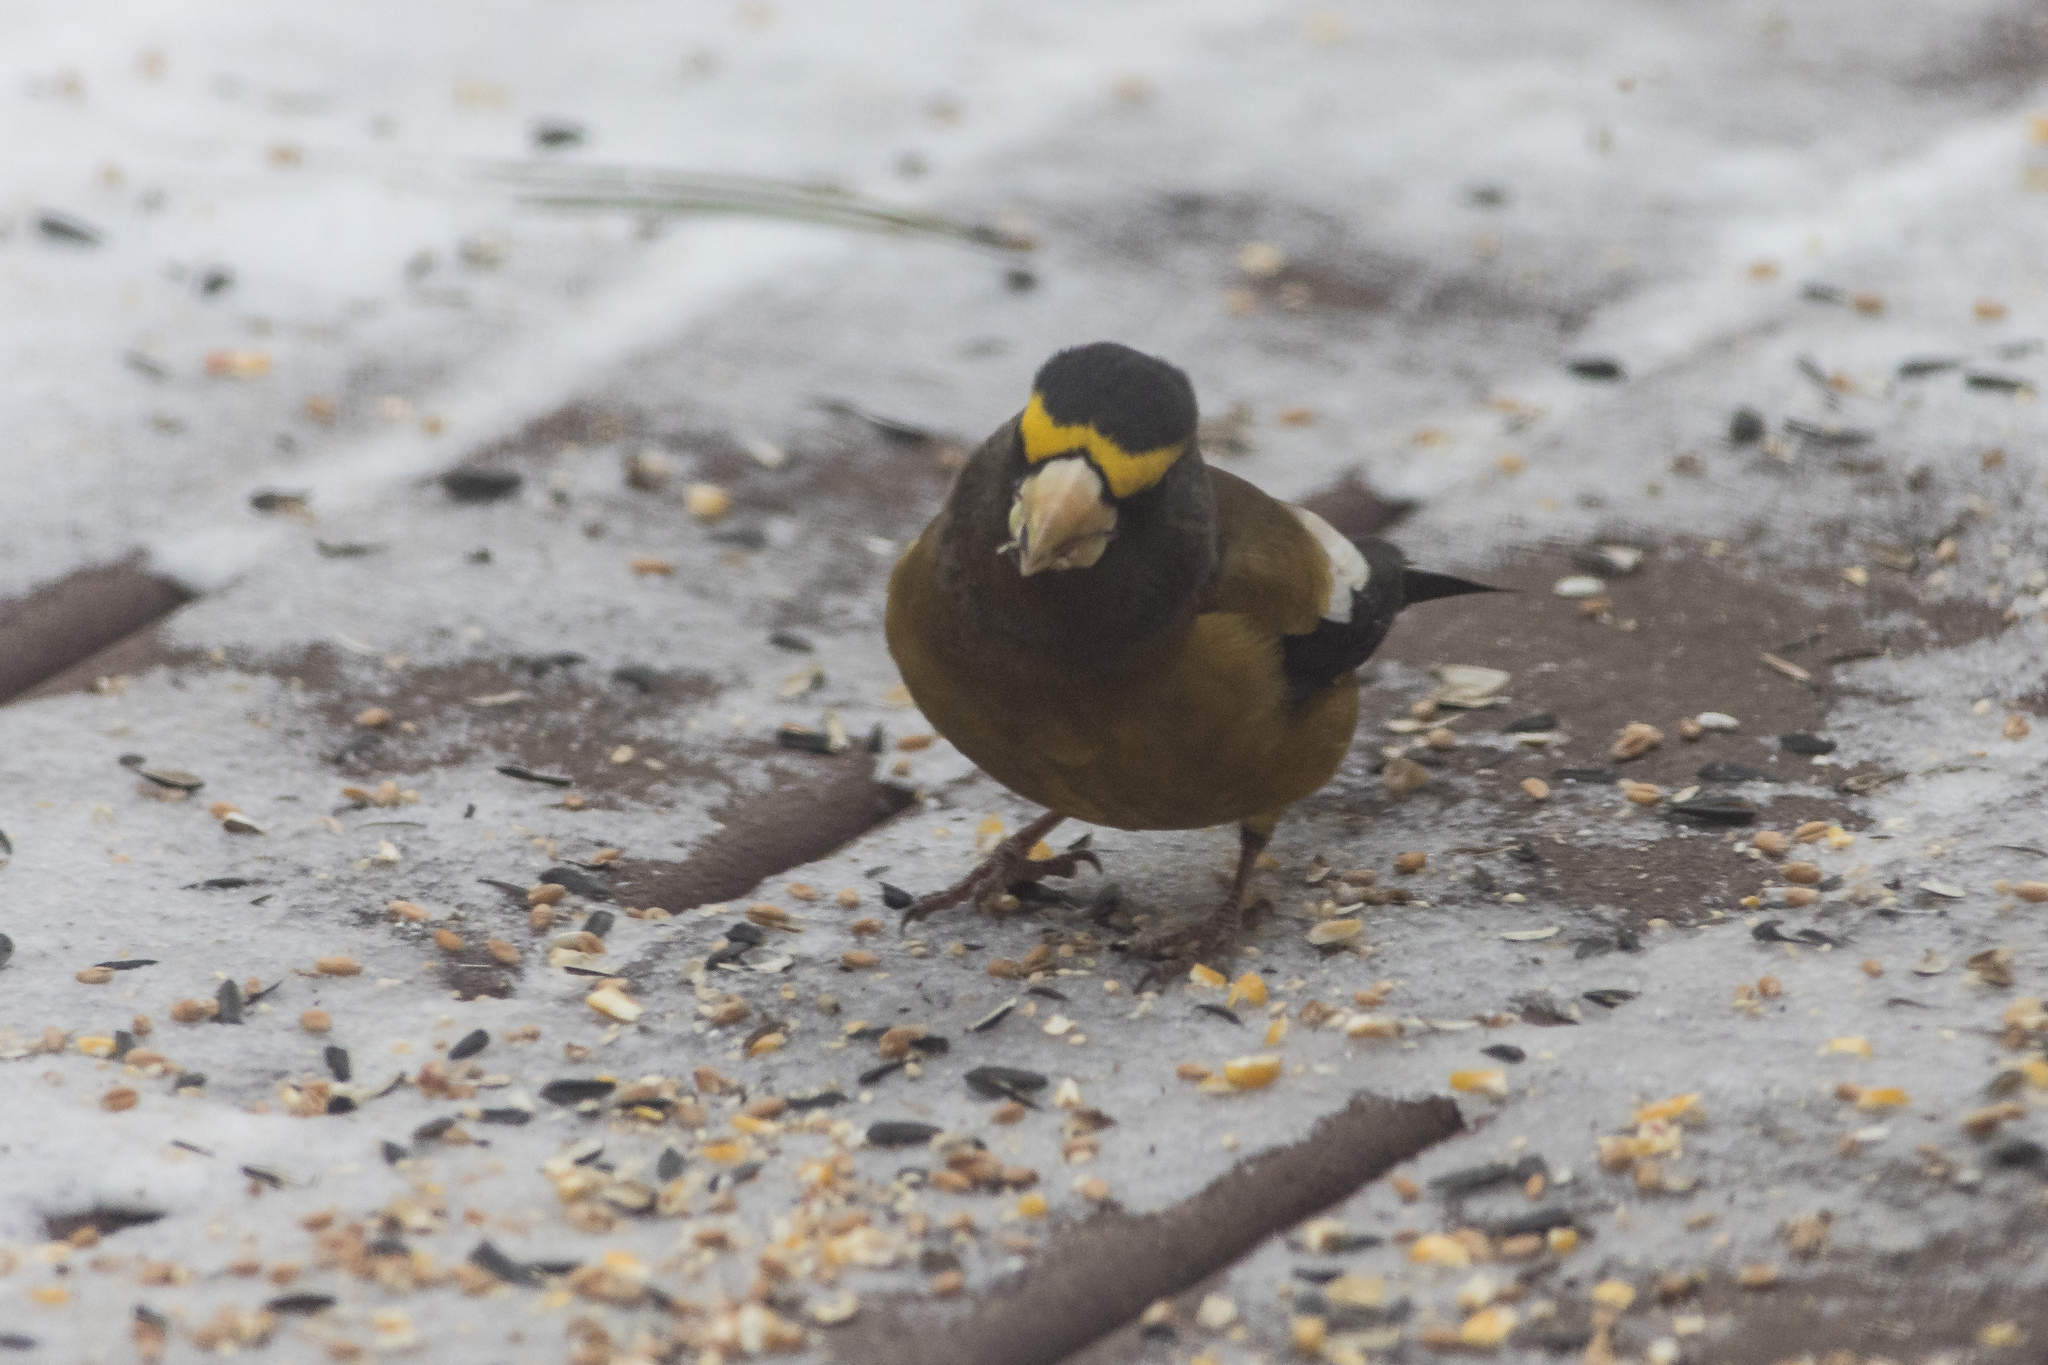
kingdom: Animalia
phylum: Chordata
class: Aves
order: Passeriformes
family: Fringillidae
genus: Hesperiphona
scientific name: Hesperiphona vespertina
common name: Evening grosbeak
